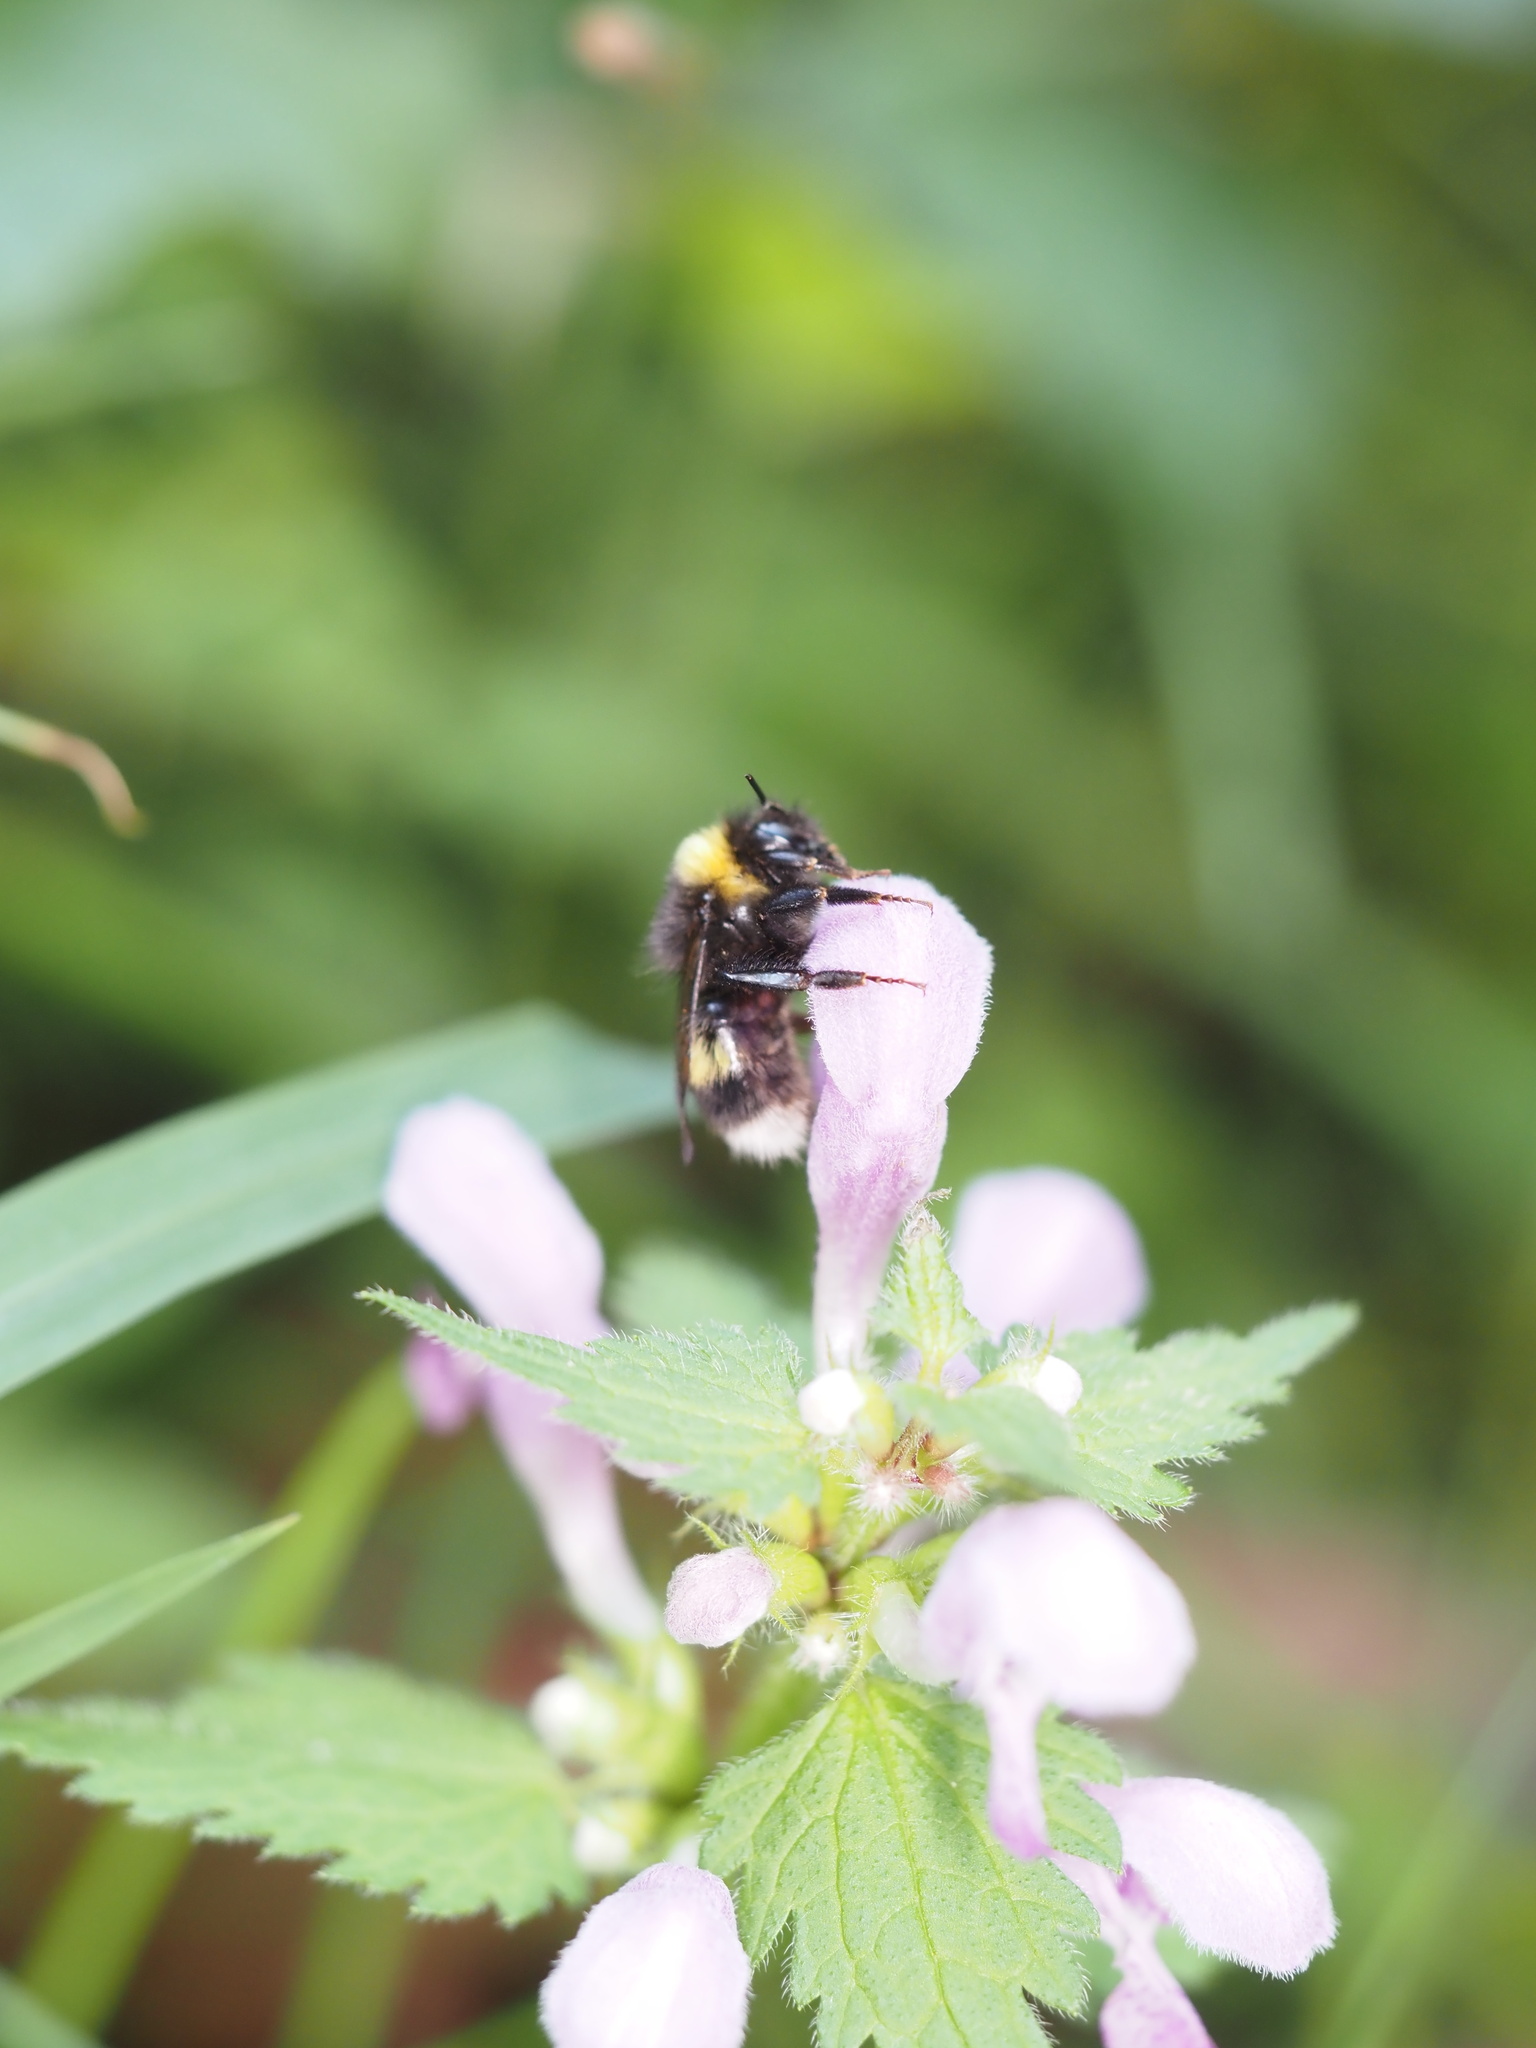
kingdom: Animalia
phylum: Arthropoda
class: Insecta
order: Hymenoptera
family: Apidae
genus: Bombus
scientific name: Bombus
